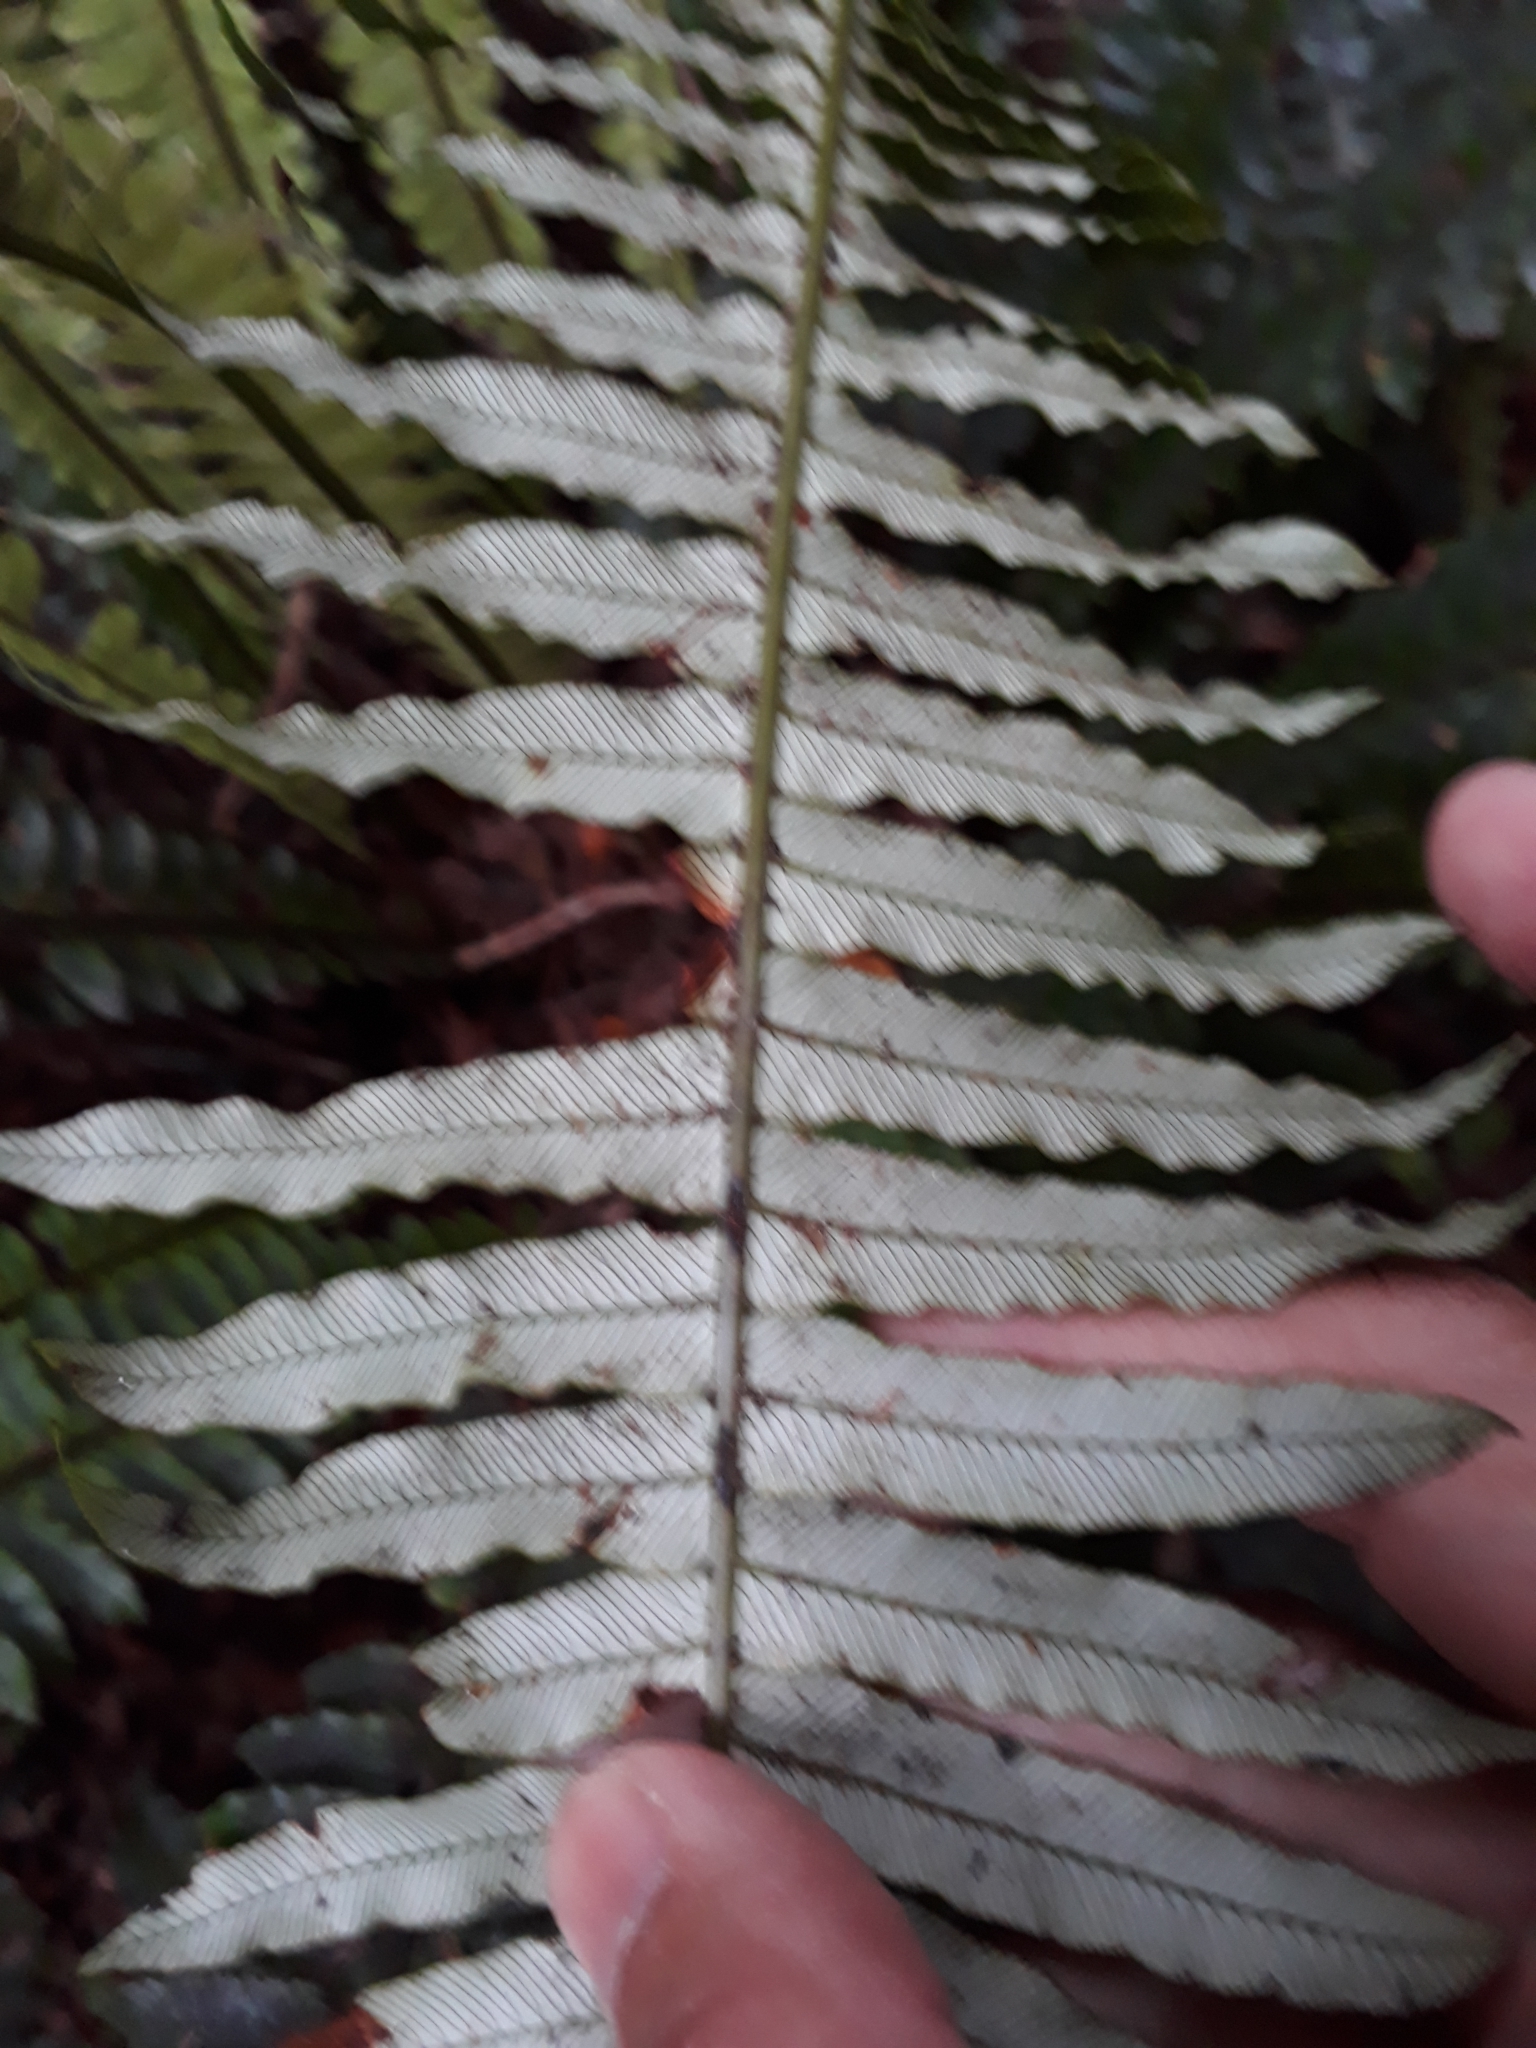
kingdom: Plantae
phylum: Tracheophyta
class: Polypodiopsida
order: Polypodiales
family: Blechnaceae
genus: Lomaria
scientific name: Lomaria discolor
